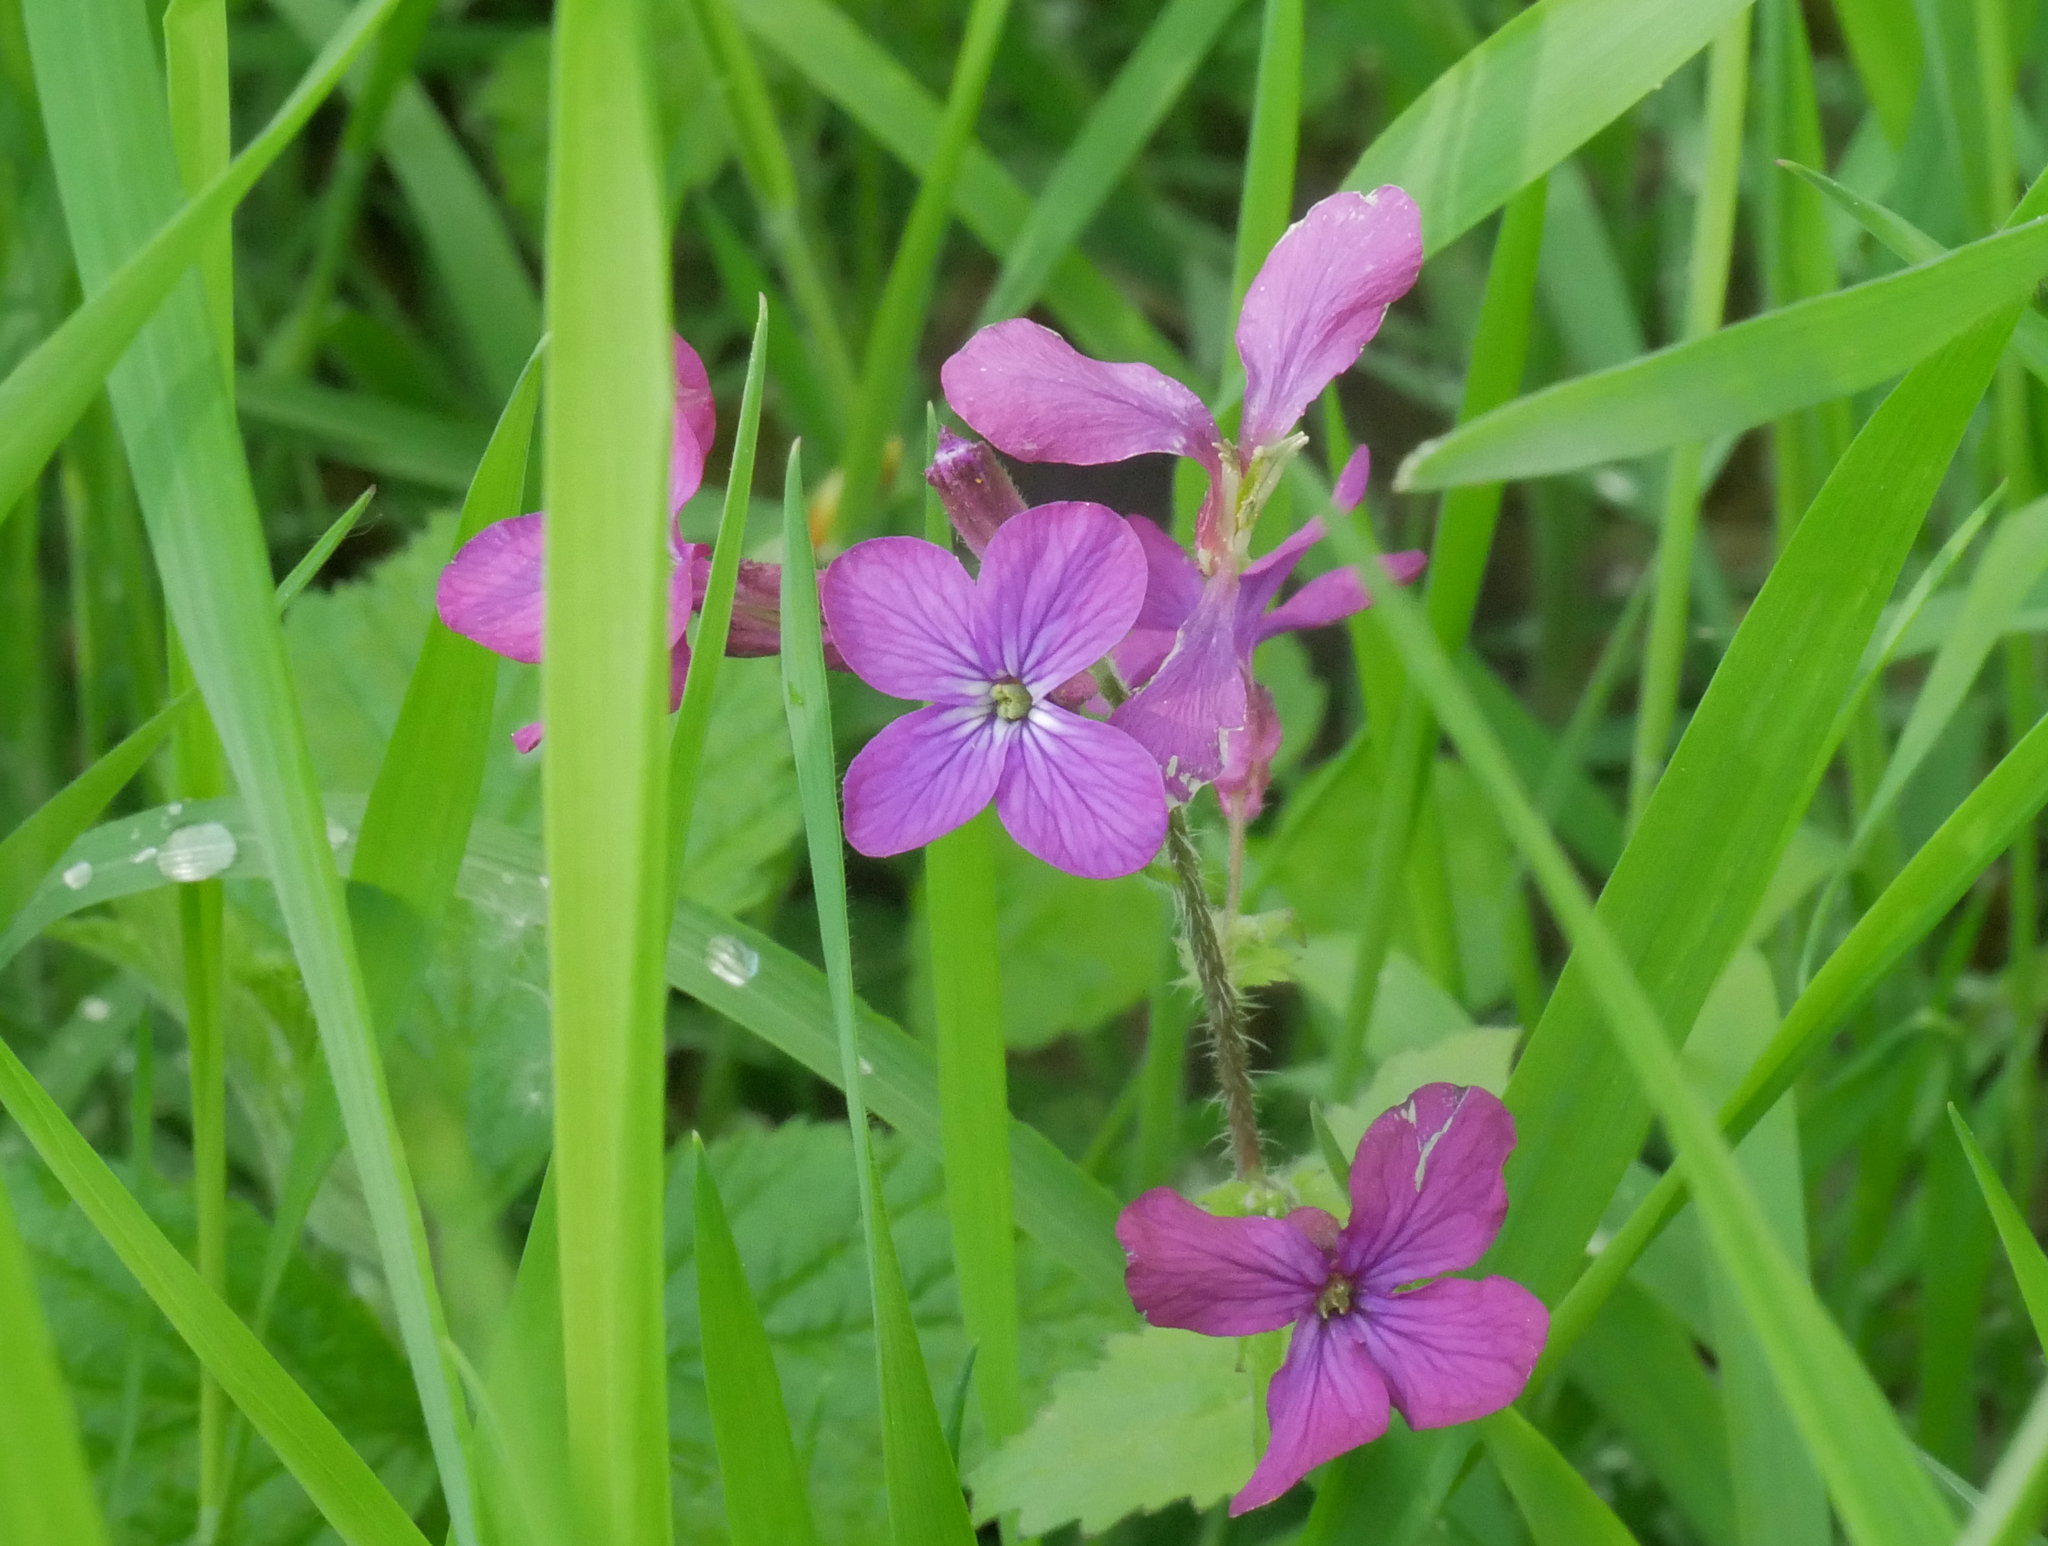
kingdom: Plantae
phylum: Tracheophyta
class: Magnoliopsida
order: Brassicales
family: Brassicaceae
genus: Lunaria
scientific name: Lunaria annua
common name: Honesty
